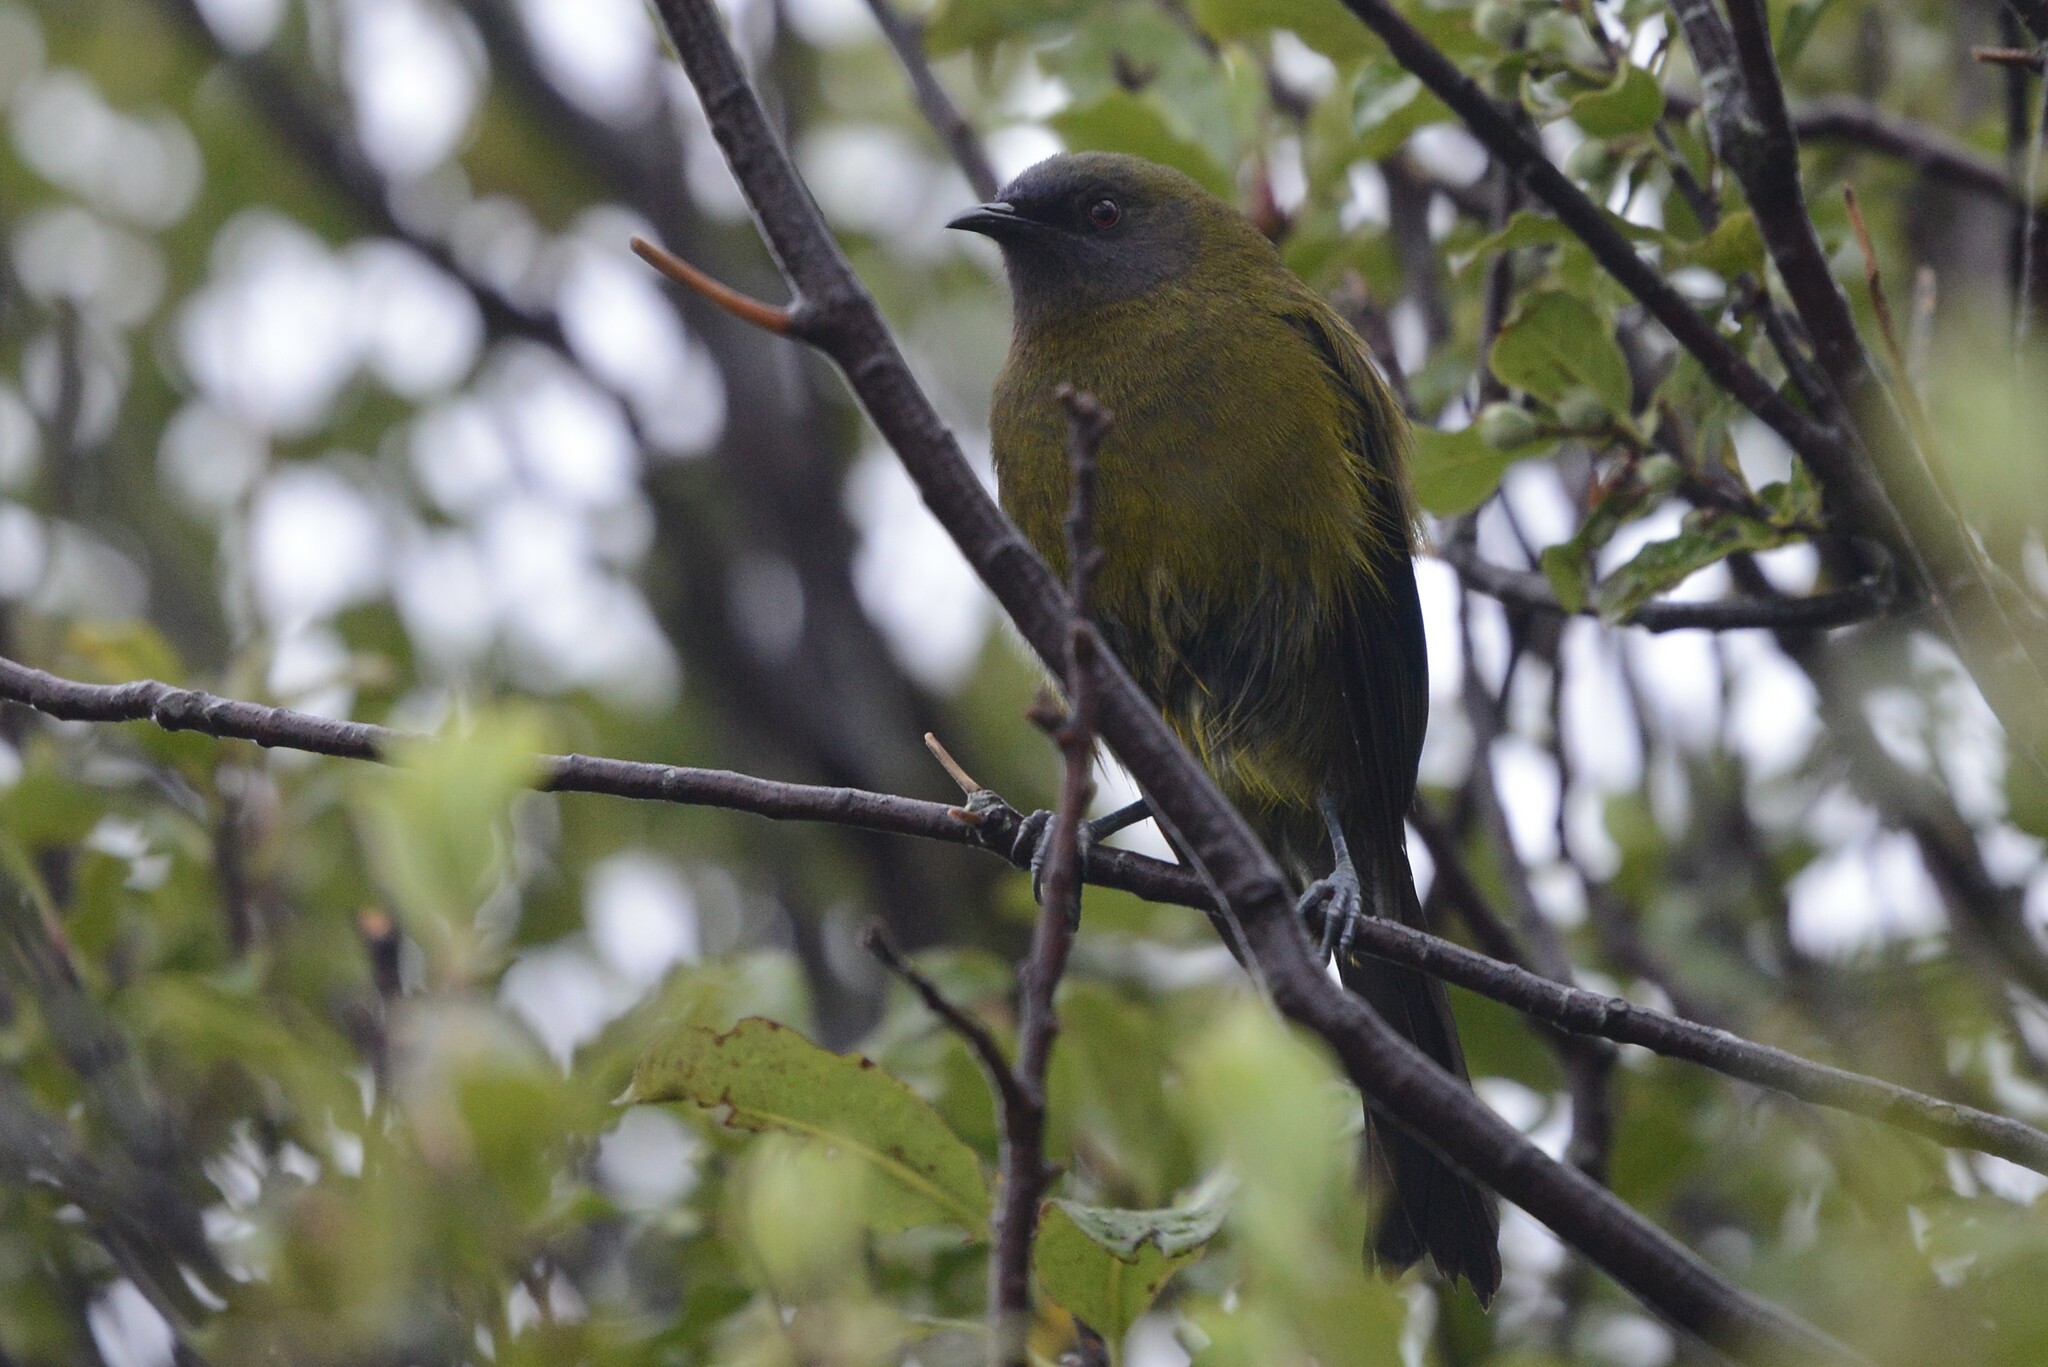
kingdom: Animalia
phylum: Chordata
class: Aves
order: Passeriformes
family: Meliphagidae
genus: Anthornis
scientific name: Anthornis melanura
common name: New zealand bellbird
